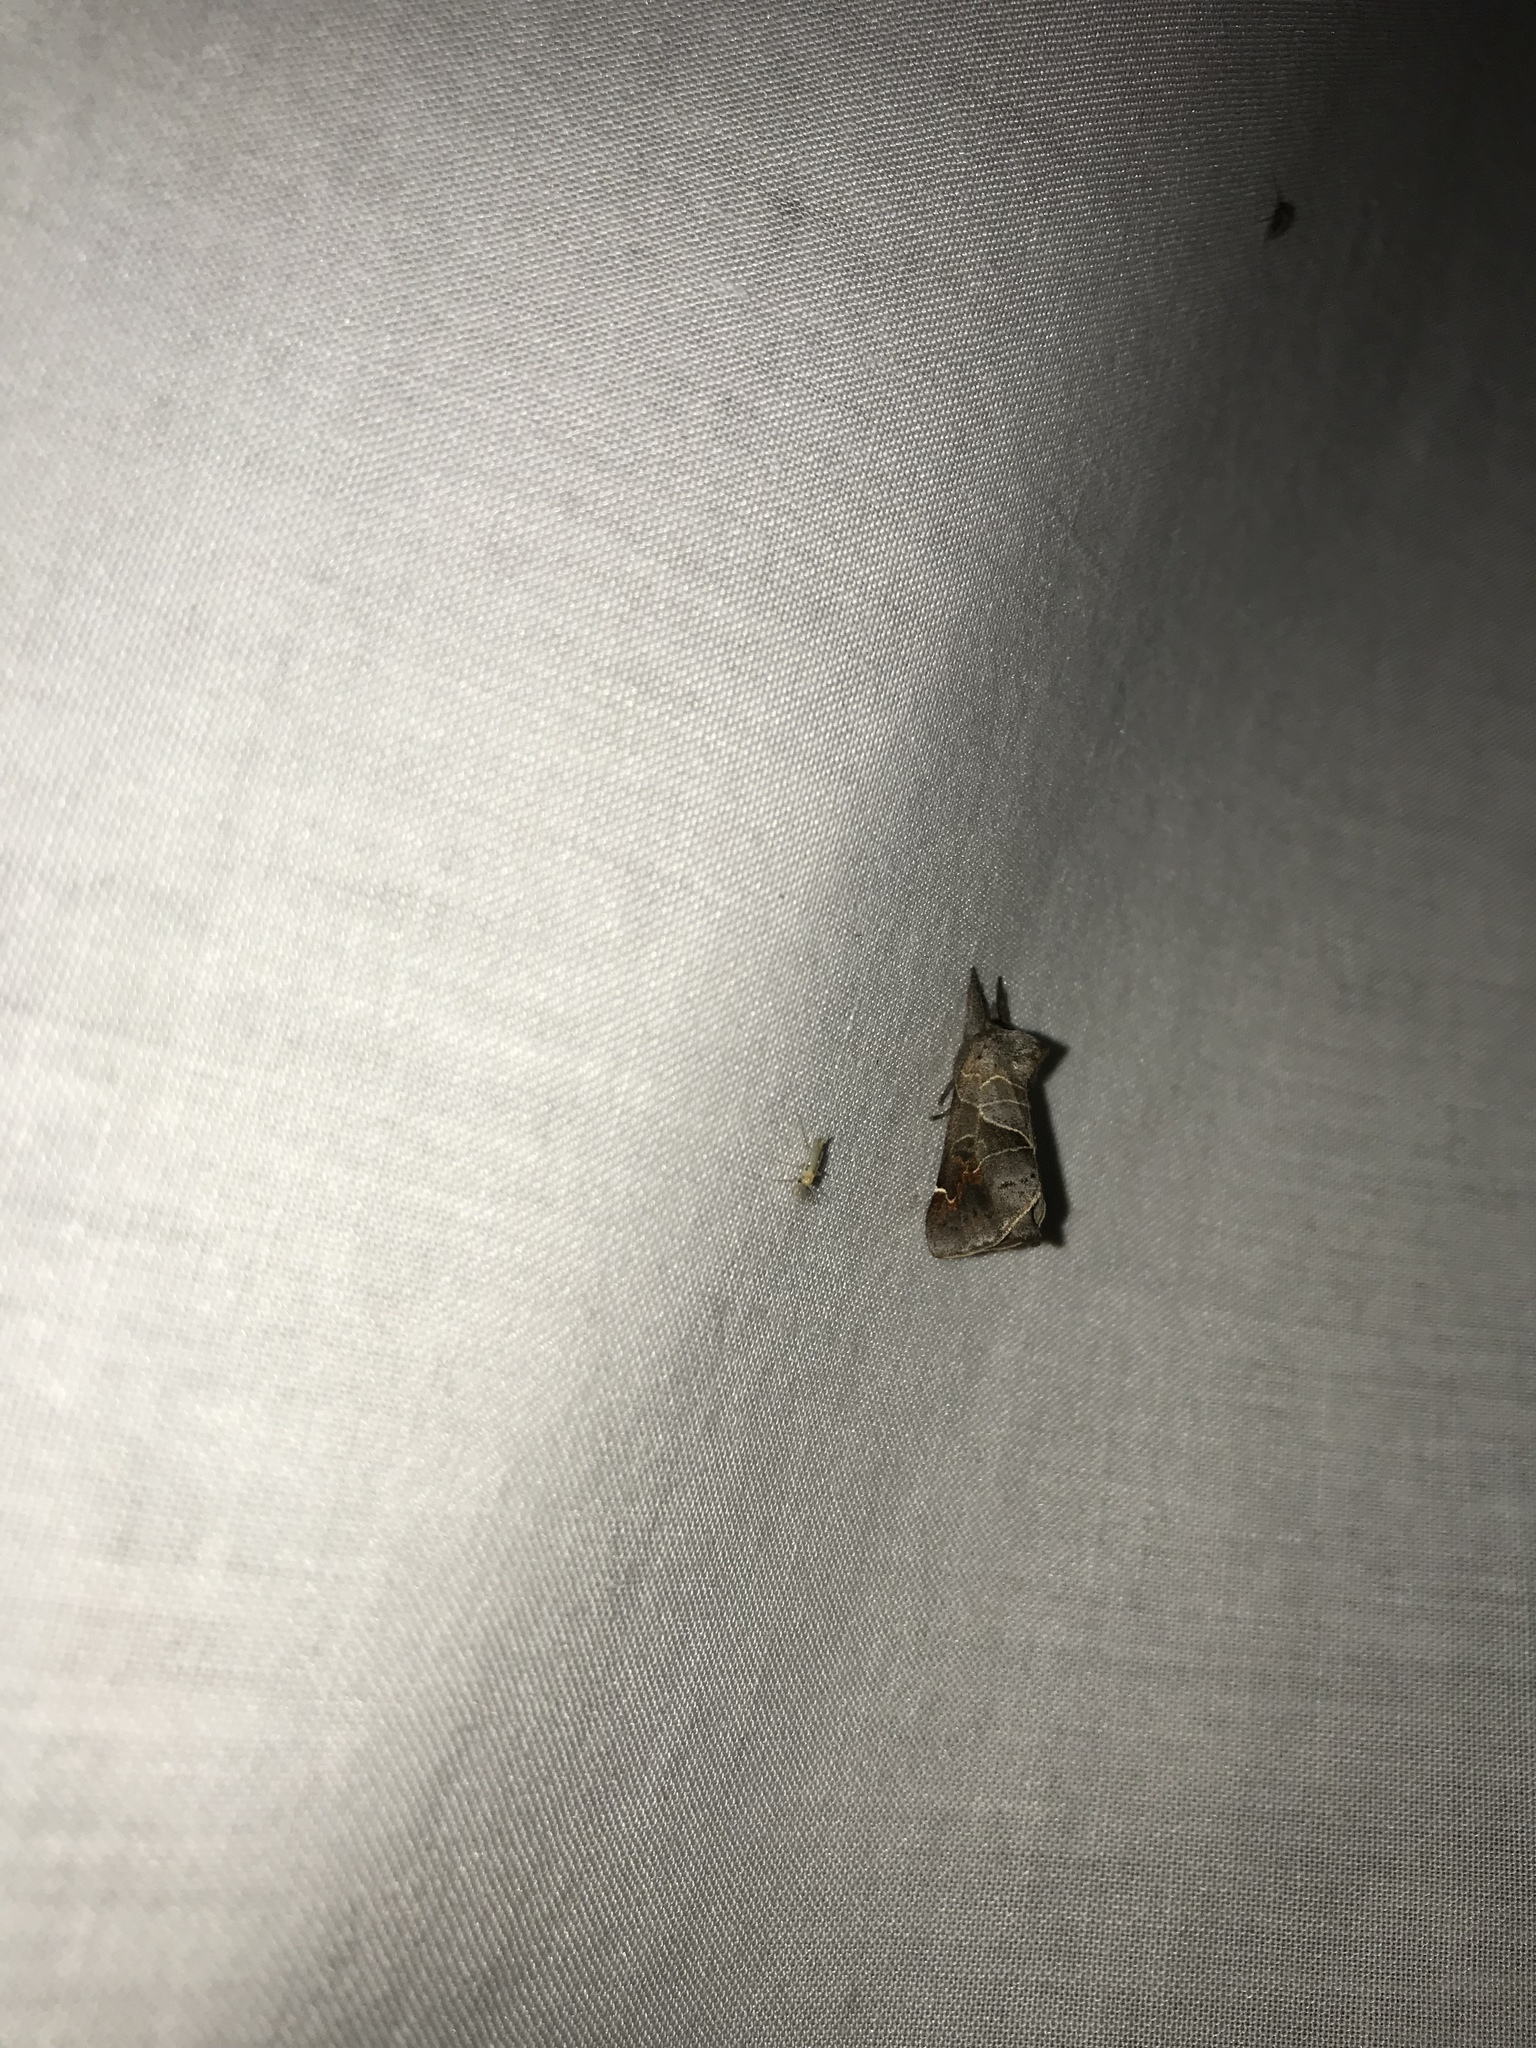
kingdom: Animalia
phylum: Arthropoda
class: Insecta
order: Lepidoptera
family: Notodontidae
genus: Clostera
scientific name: Clostera apicalis
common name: Apical prominent
